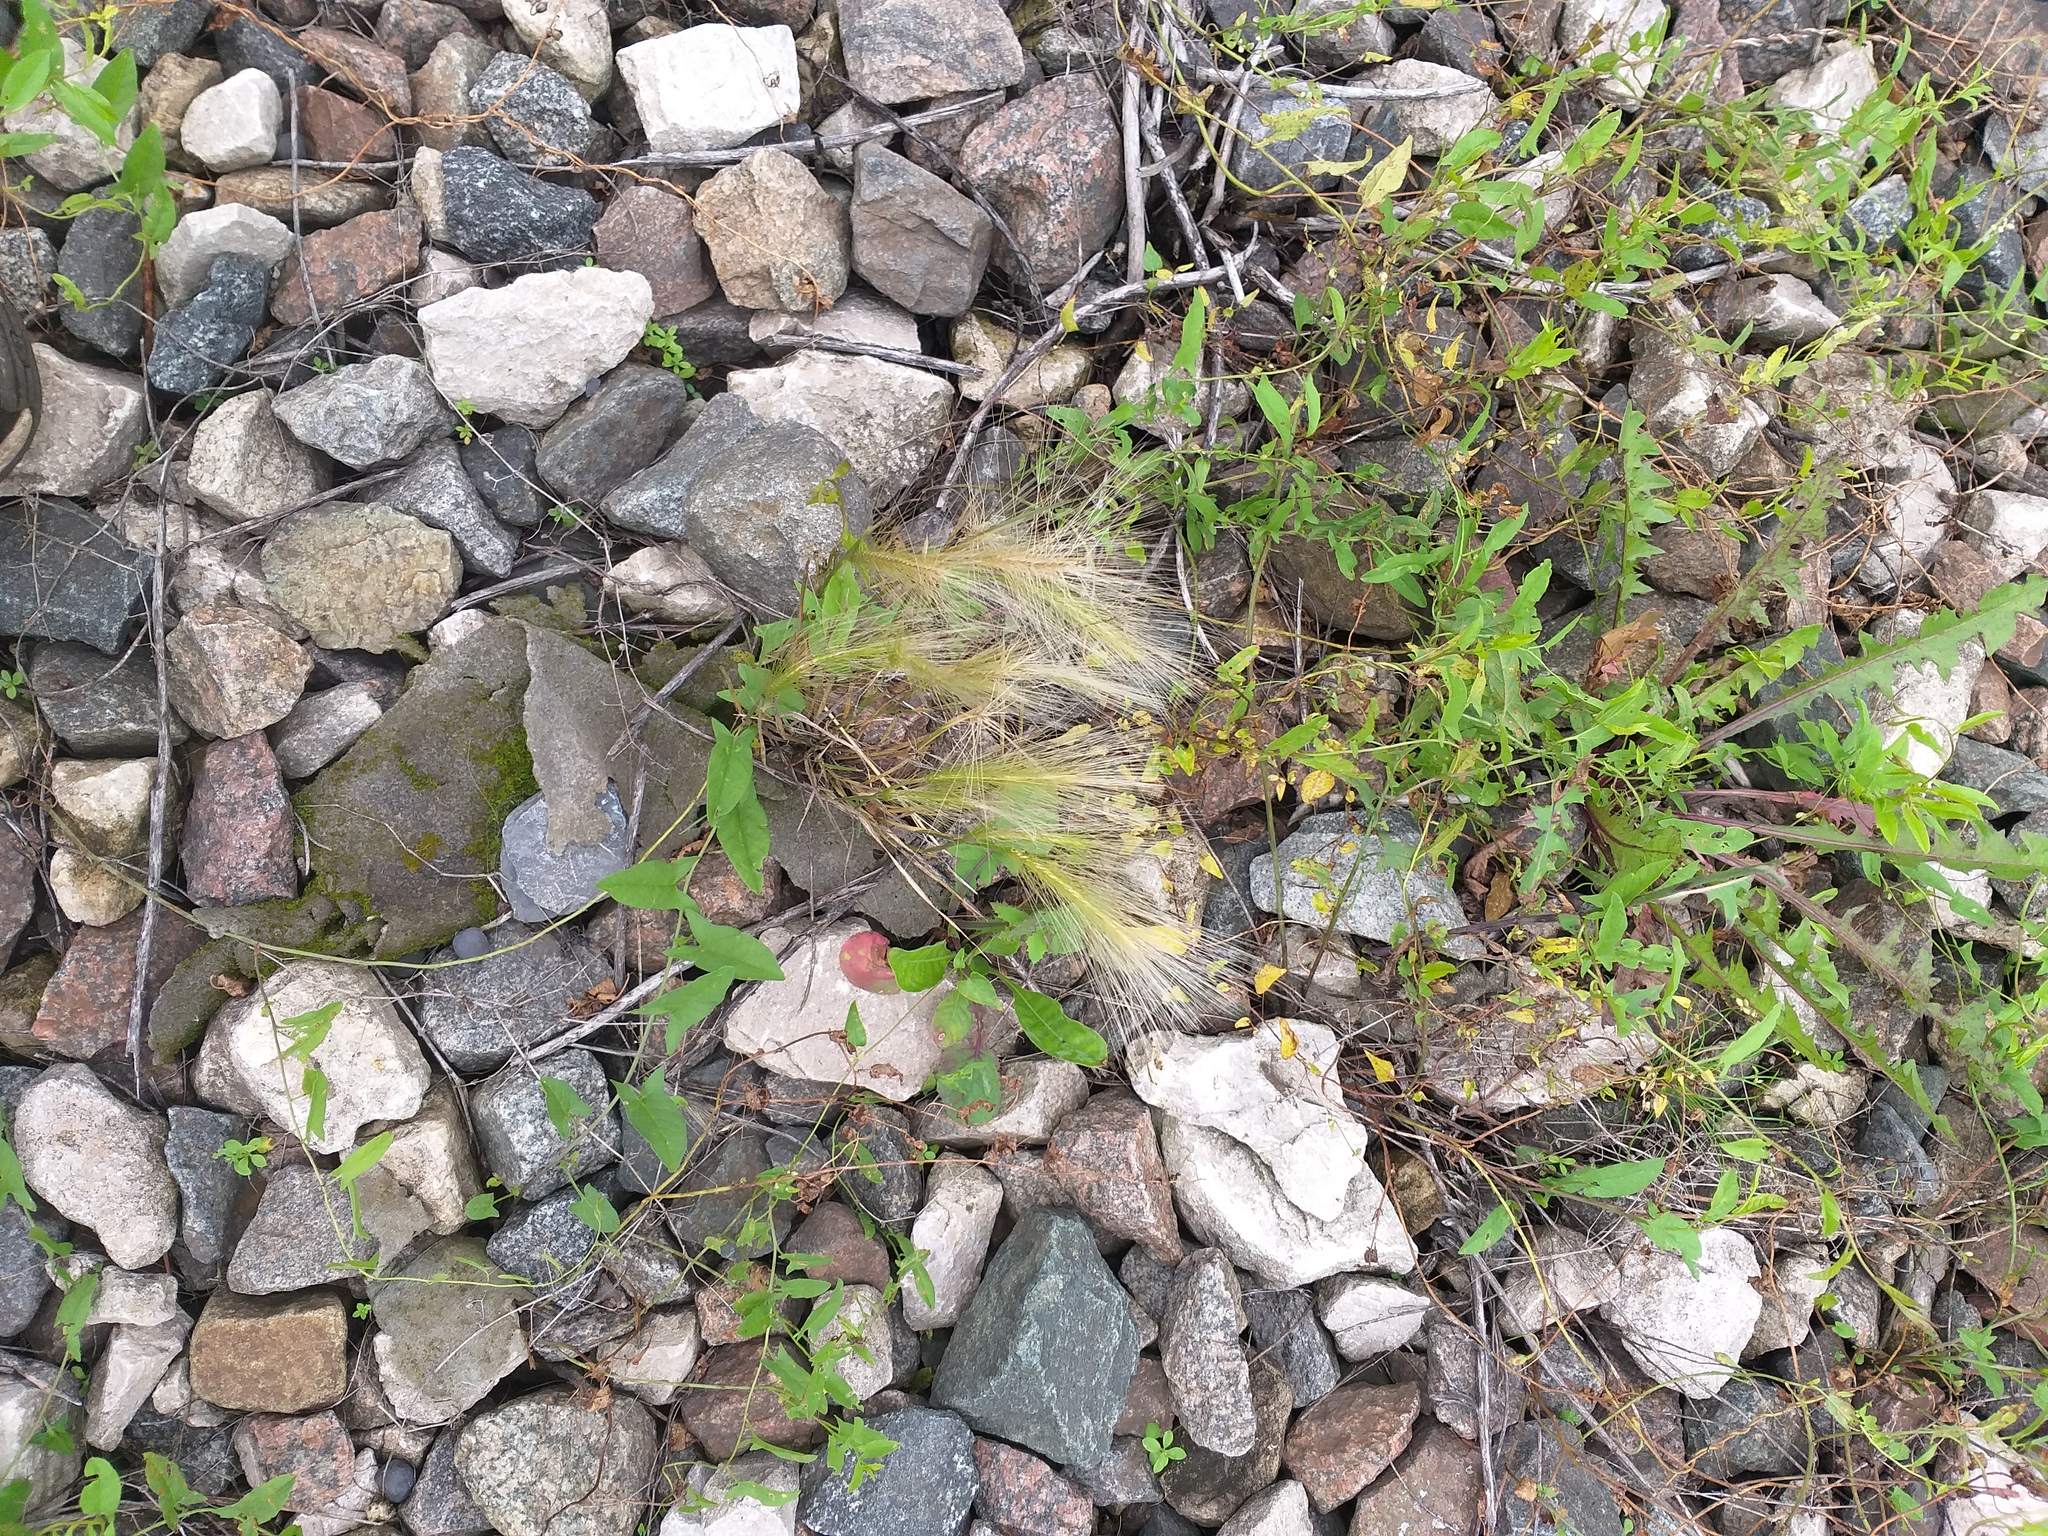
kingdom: Plantae
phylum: Tracheophyta
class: Liliopsida
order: Poales
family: Poaceae
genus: Hordeum
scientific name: Hordeum jubatum
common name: Foxtail barley
